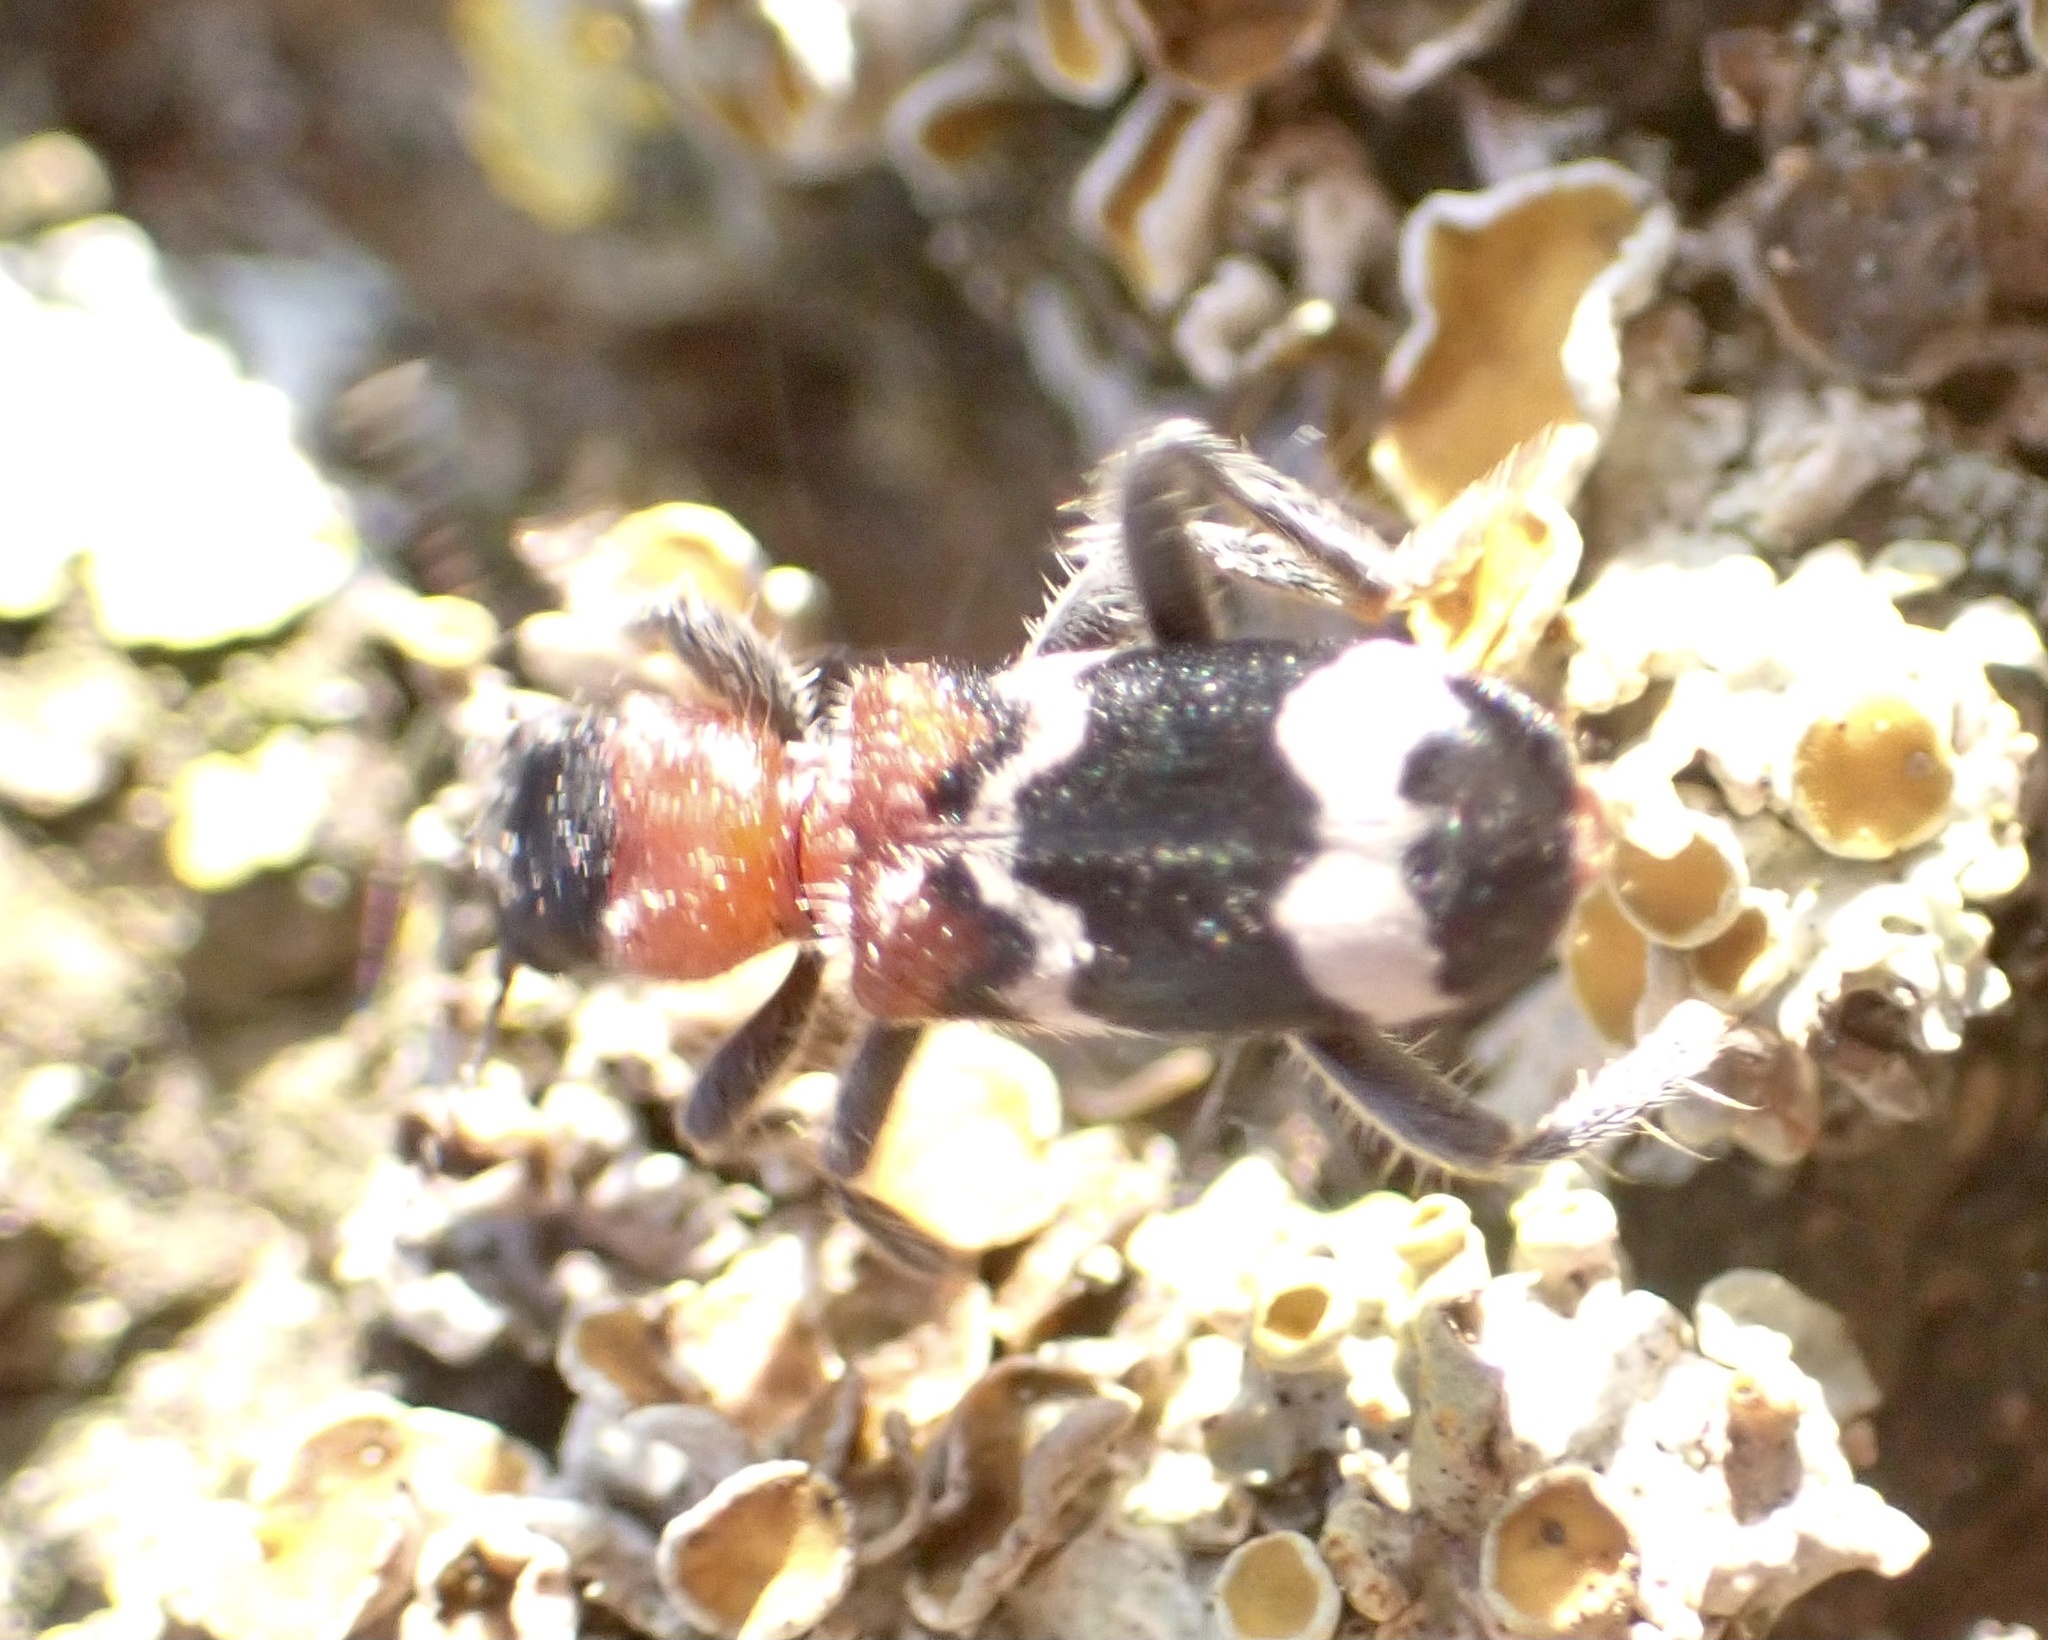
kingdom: Animalia
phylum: Arthropoda
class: Insecta
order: Coleoptera
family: Cleridae
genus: Thanasimus
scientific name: Thanasimus formicarius
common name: Ant beetle
